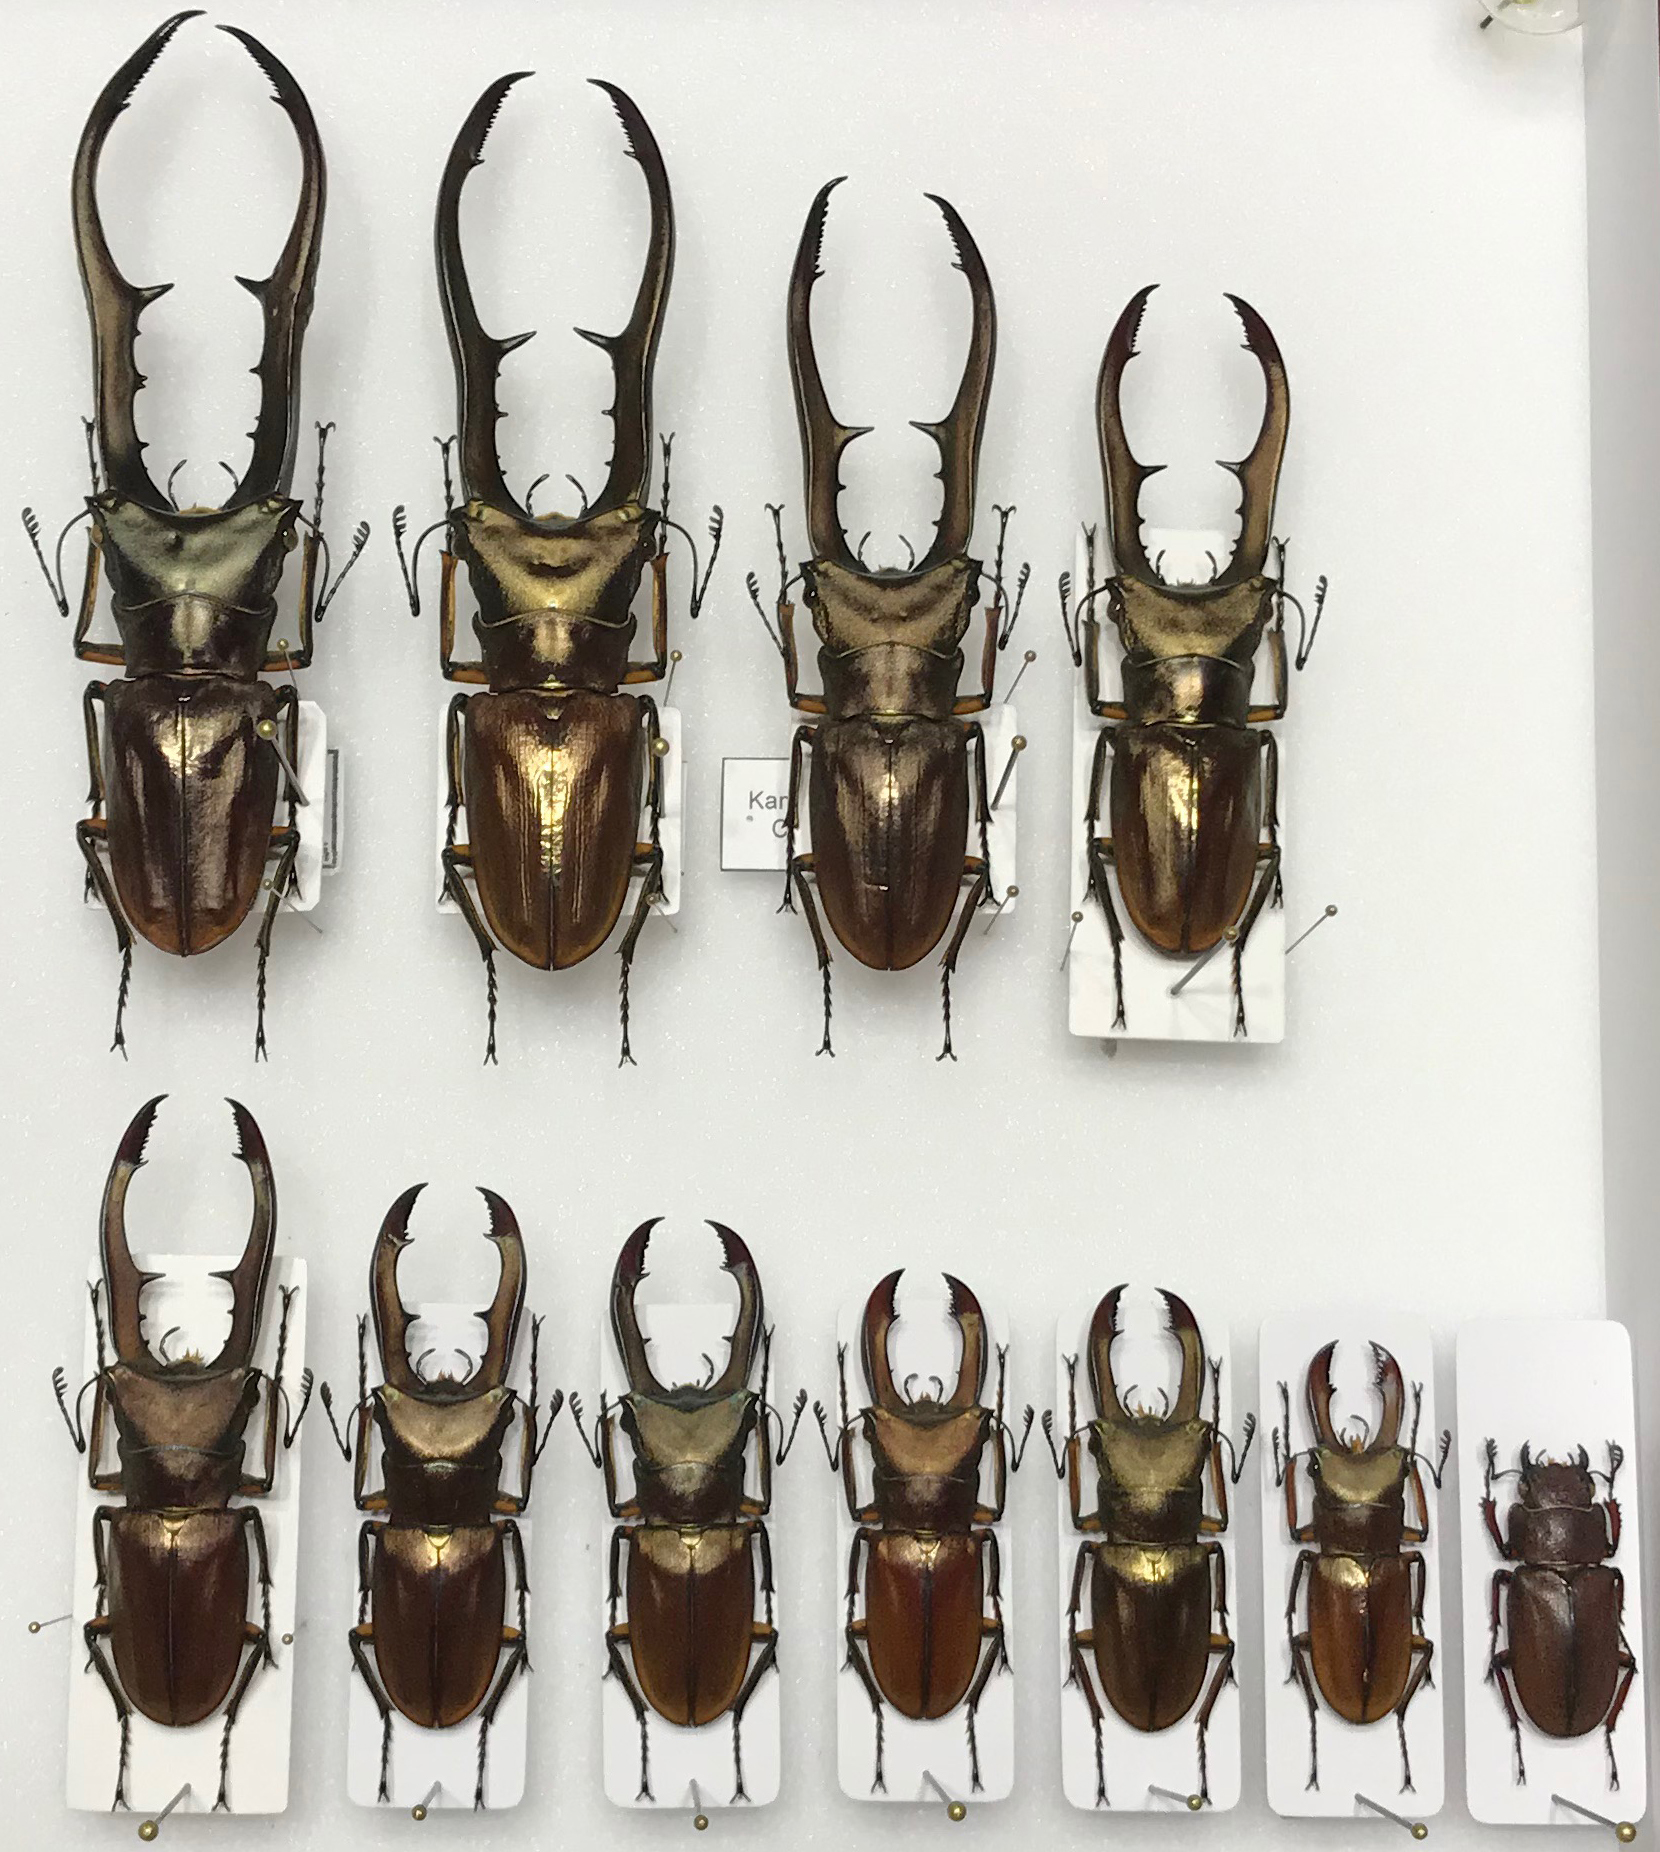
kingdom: Animalia
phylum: Arthropoda
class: Insecta
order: Coleoptera
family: Lucanidae
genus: Cyclommatus
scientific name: Cyclommatus metallifer
